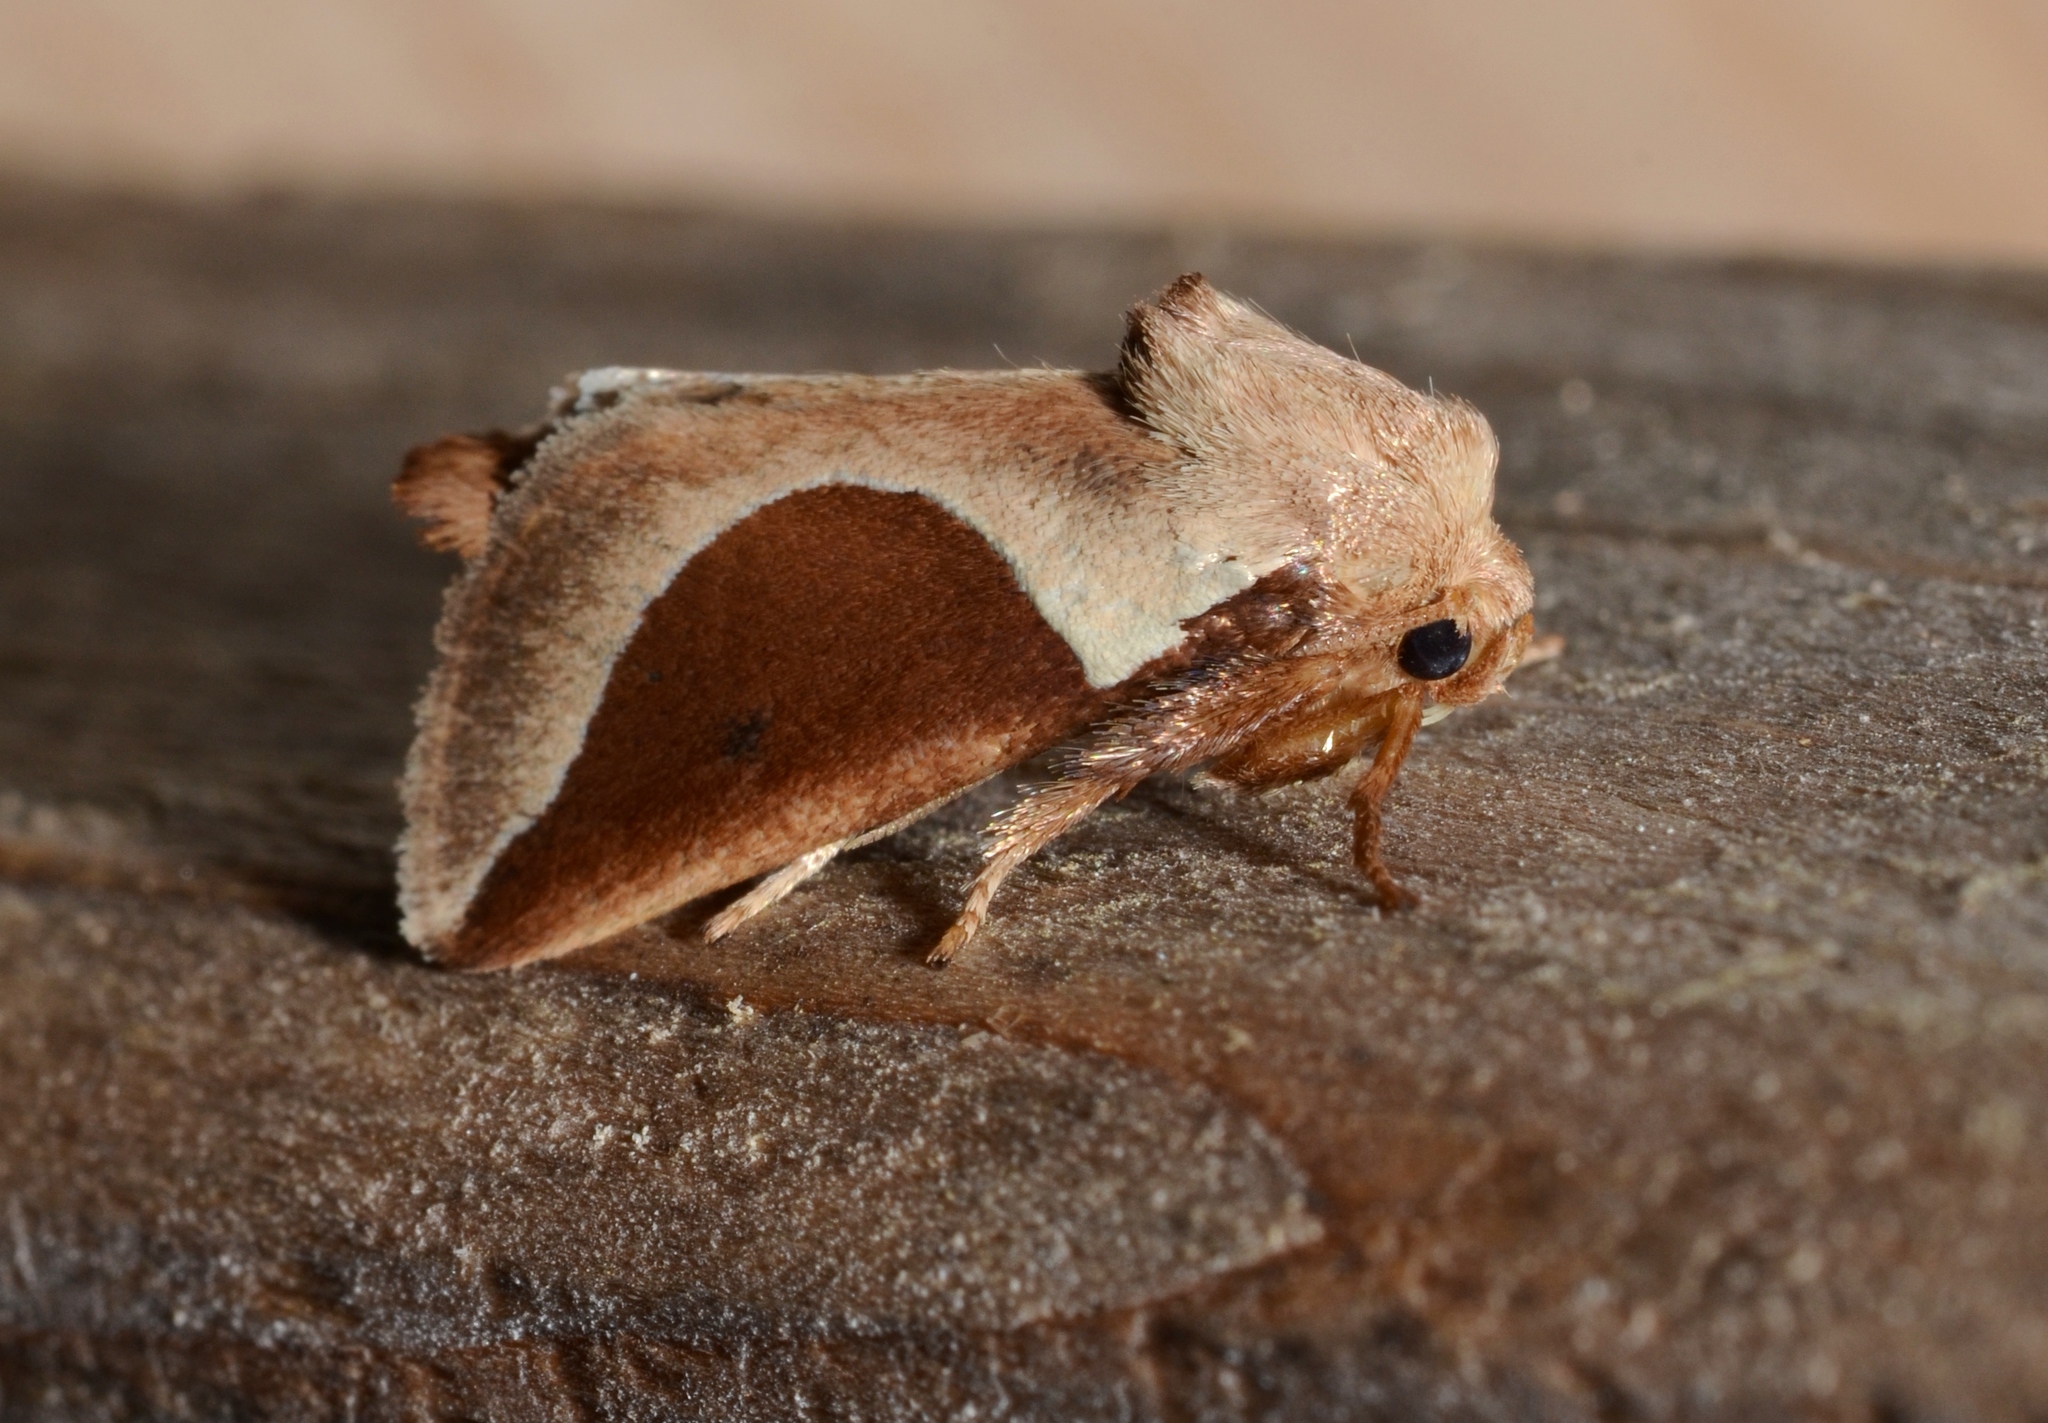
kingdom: Animalia
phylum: Arthropoda
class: Insecta
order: Lepidoptera
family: Limacodidae
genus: Prolimacodes
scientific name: Prolimacodes badia
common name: Skiff moth
